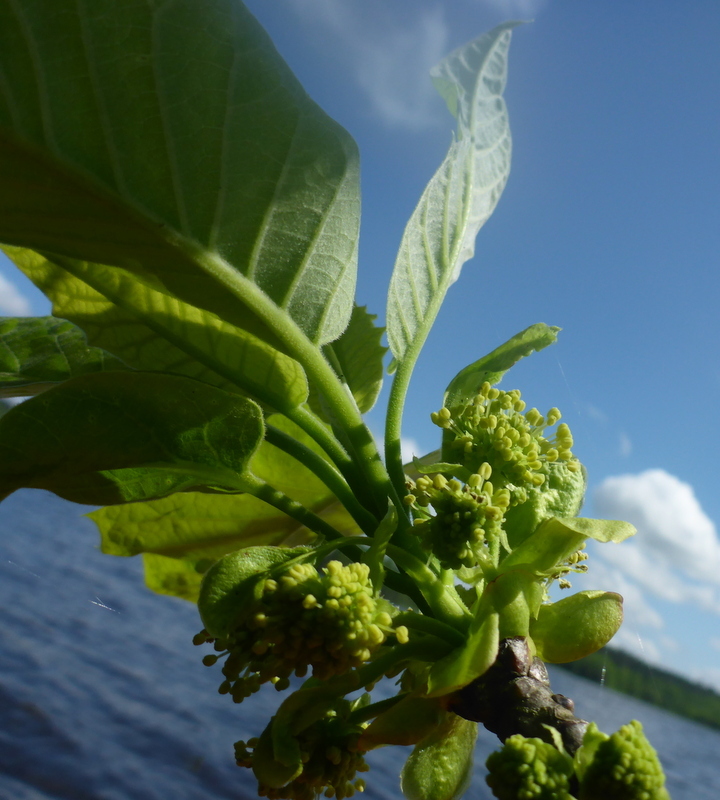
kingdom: Plantae
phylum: Tracheophyta
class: Magnoliopsida
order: Cornales
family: Nyssaceae
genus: Nyssa
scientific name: Nyssa ogeche
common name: Ogeechee tupelo
